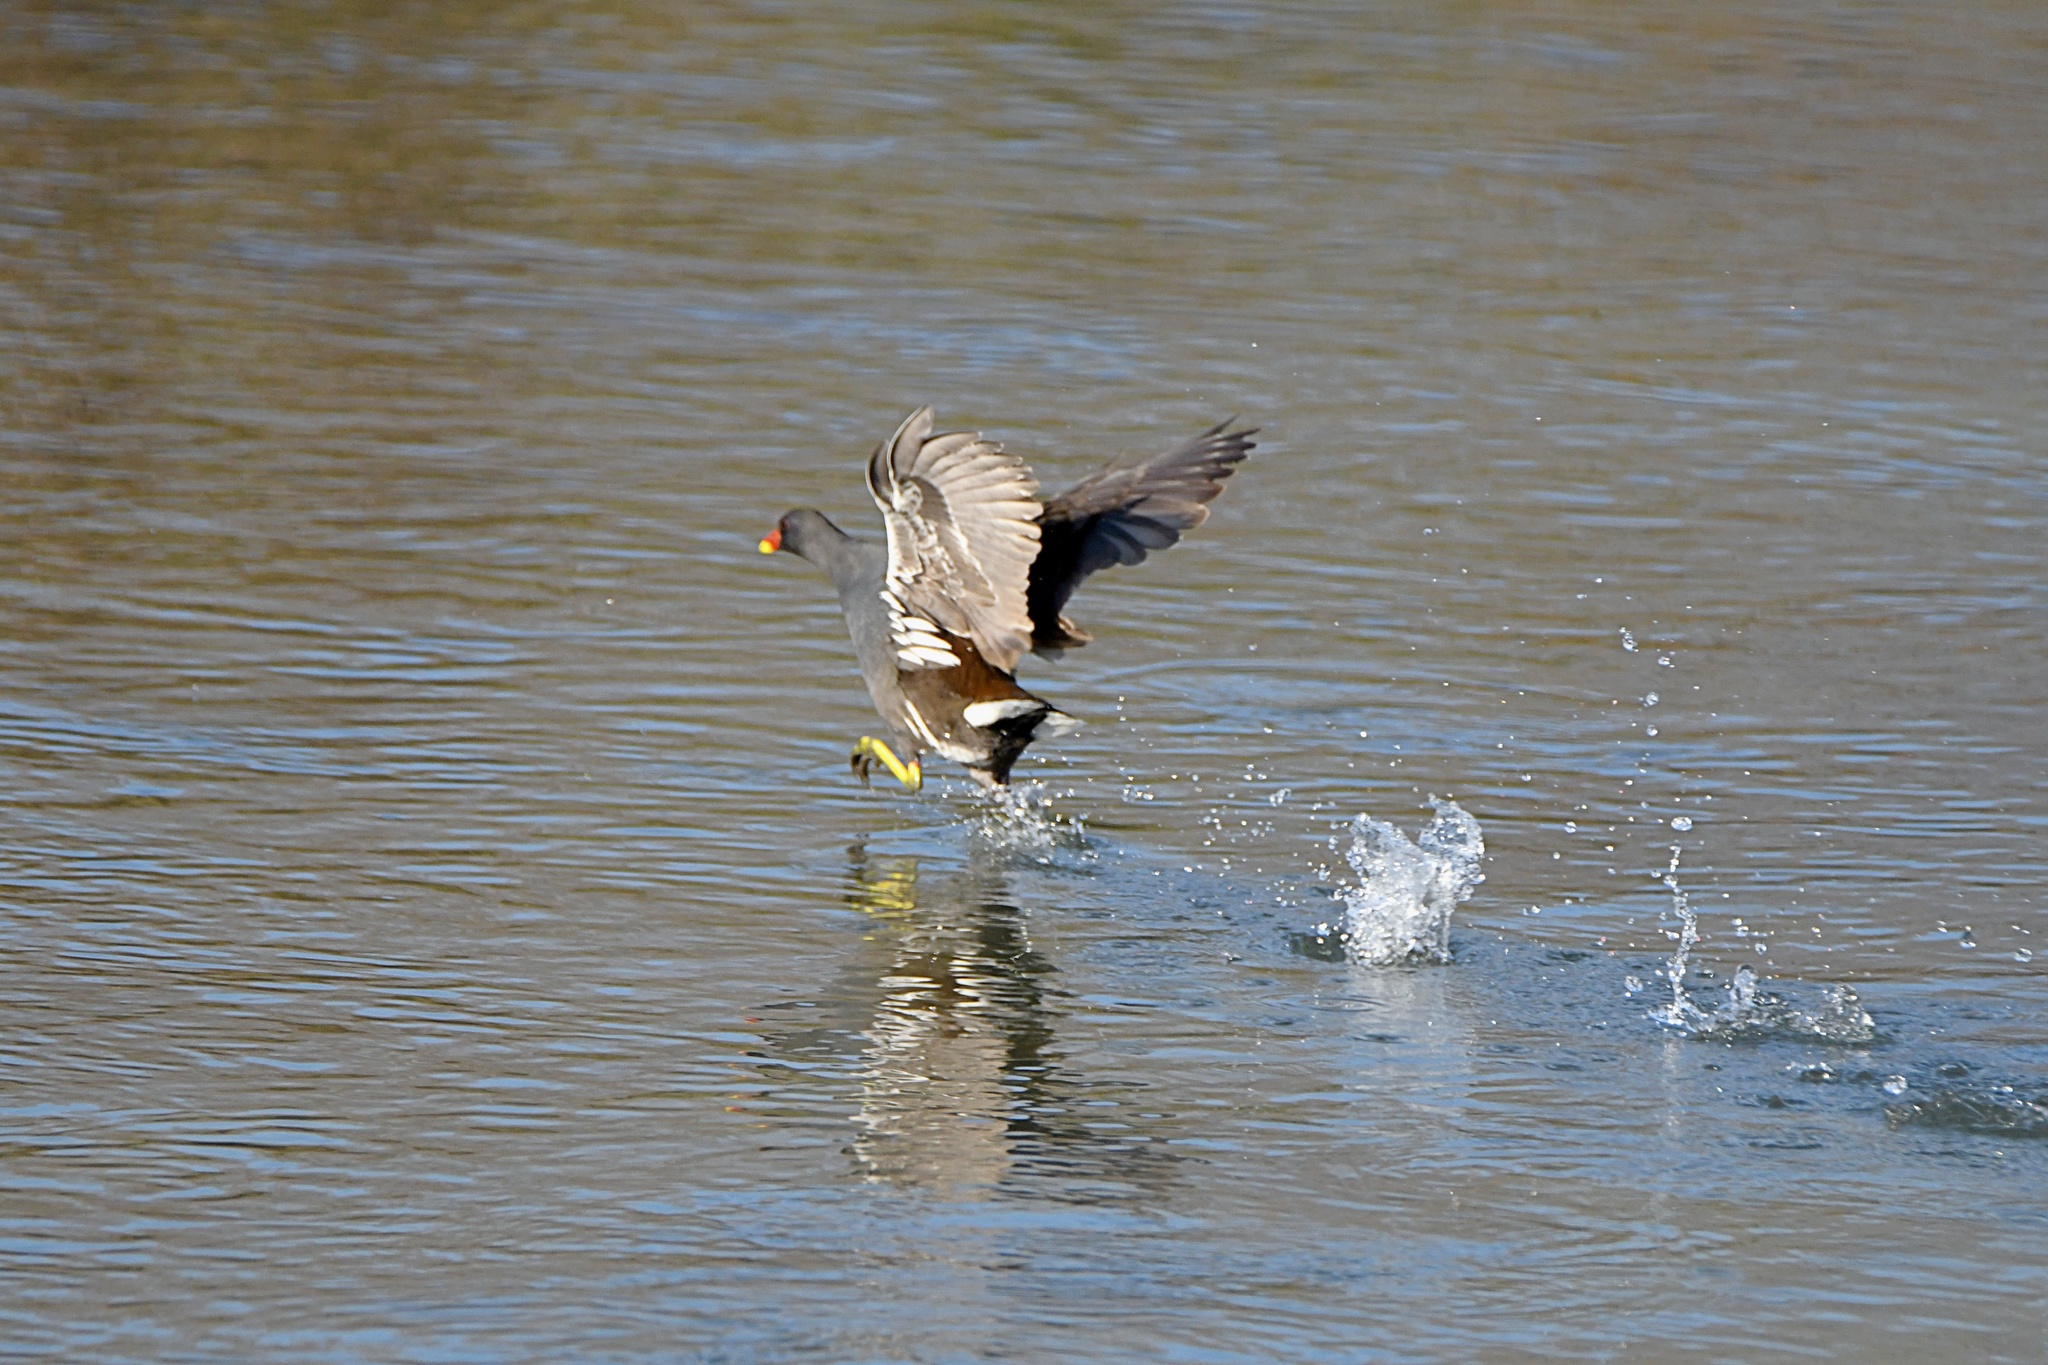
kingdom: Animalia
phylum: Chordata
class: Aves
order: Gruiformes
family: Rallidae
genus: Gallinula
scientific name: Gallinula chloropus
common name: Common moorhen
